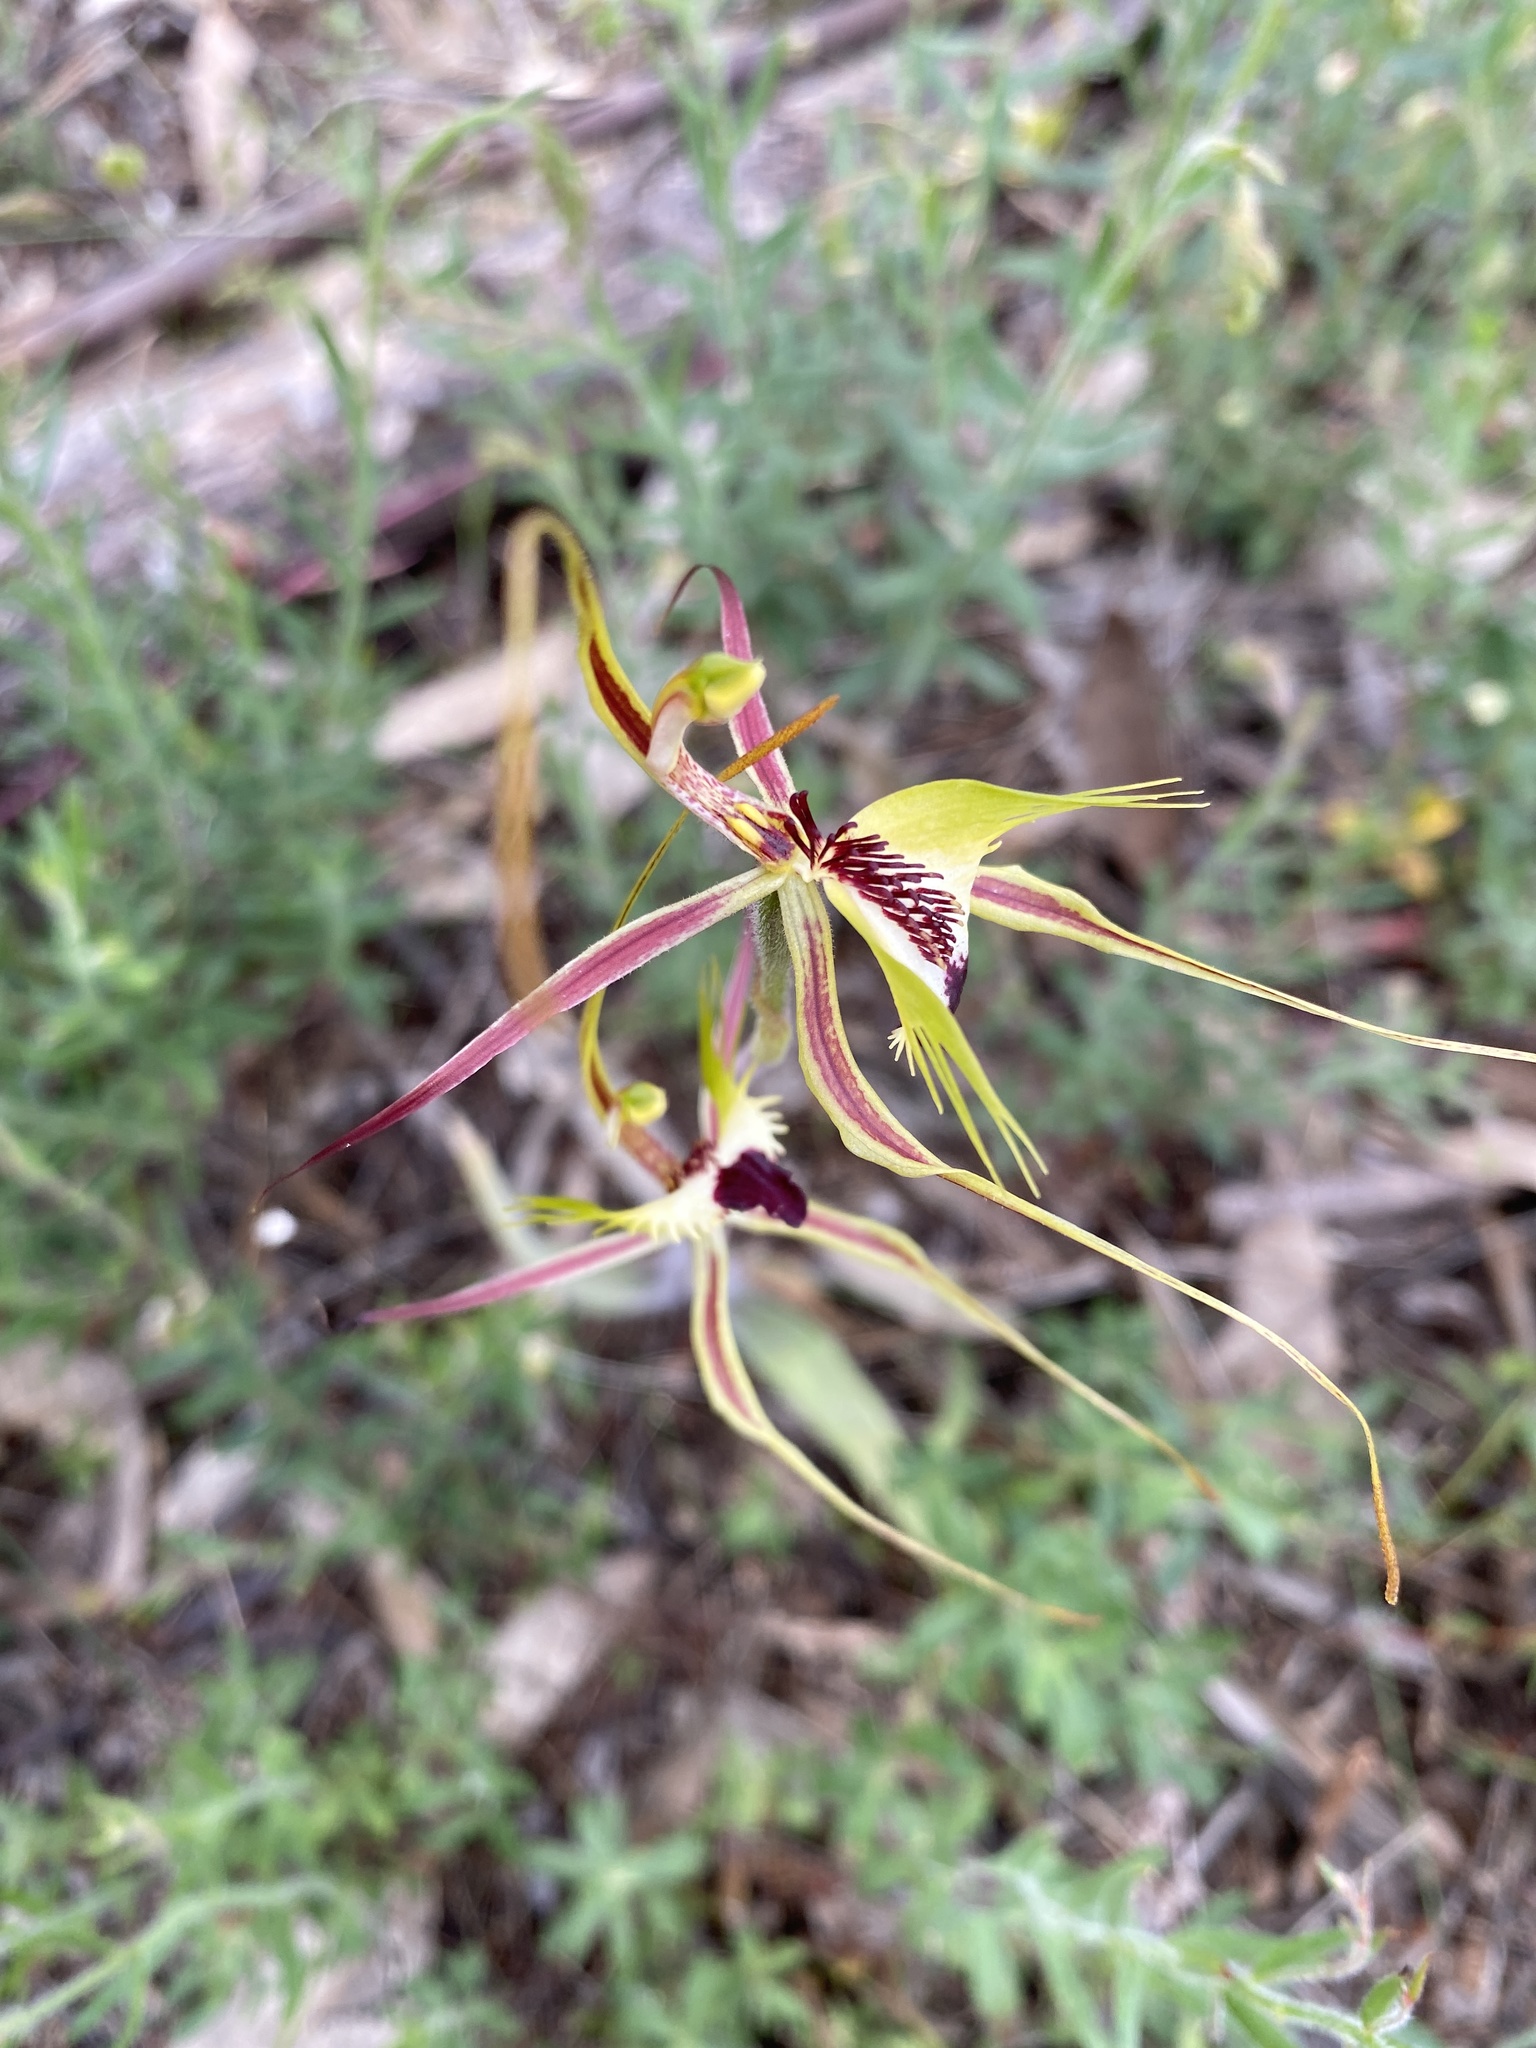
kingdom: Plantae
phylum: Tracheophyta
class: Liliopsida
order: Asparagales
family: Orchidaceae
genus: Caladenia
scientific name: Caladenia tentaculata
